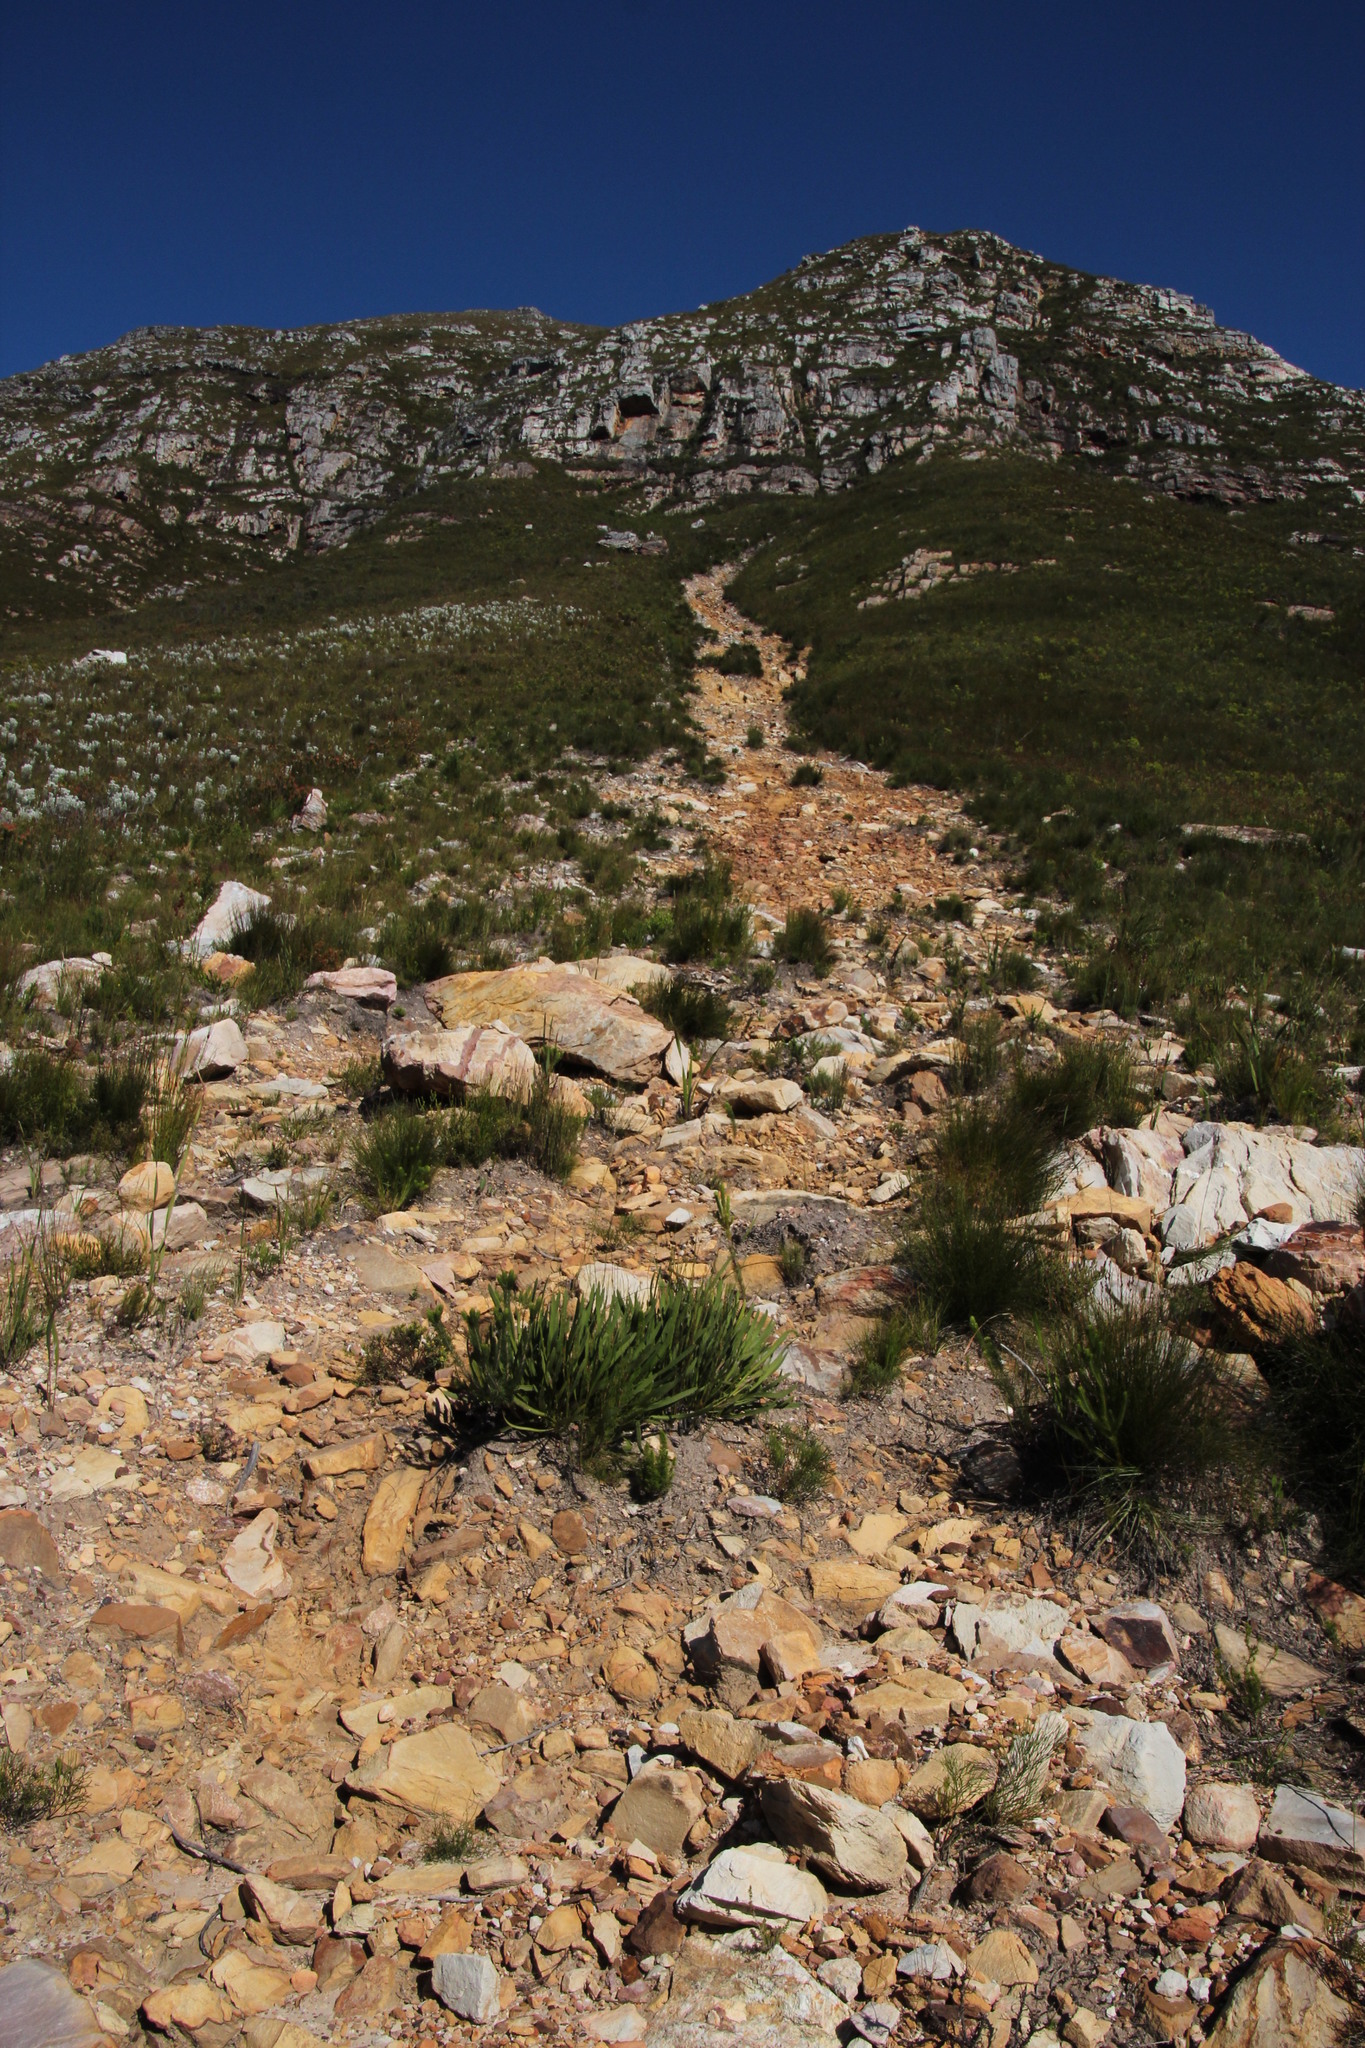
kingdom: Plantae
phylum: Tracheophyta
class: Magnoliopsida
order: Proteales
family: Proteaceae
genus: Protea
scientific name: Protea scabra
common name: Sandpaper-leaf sugarbush
